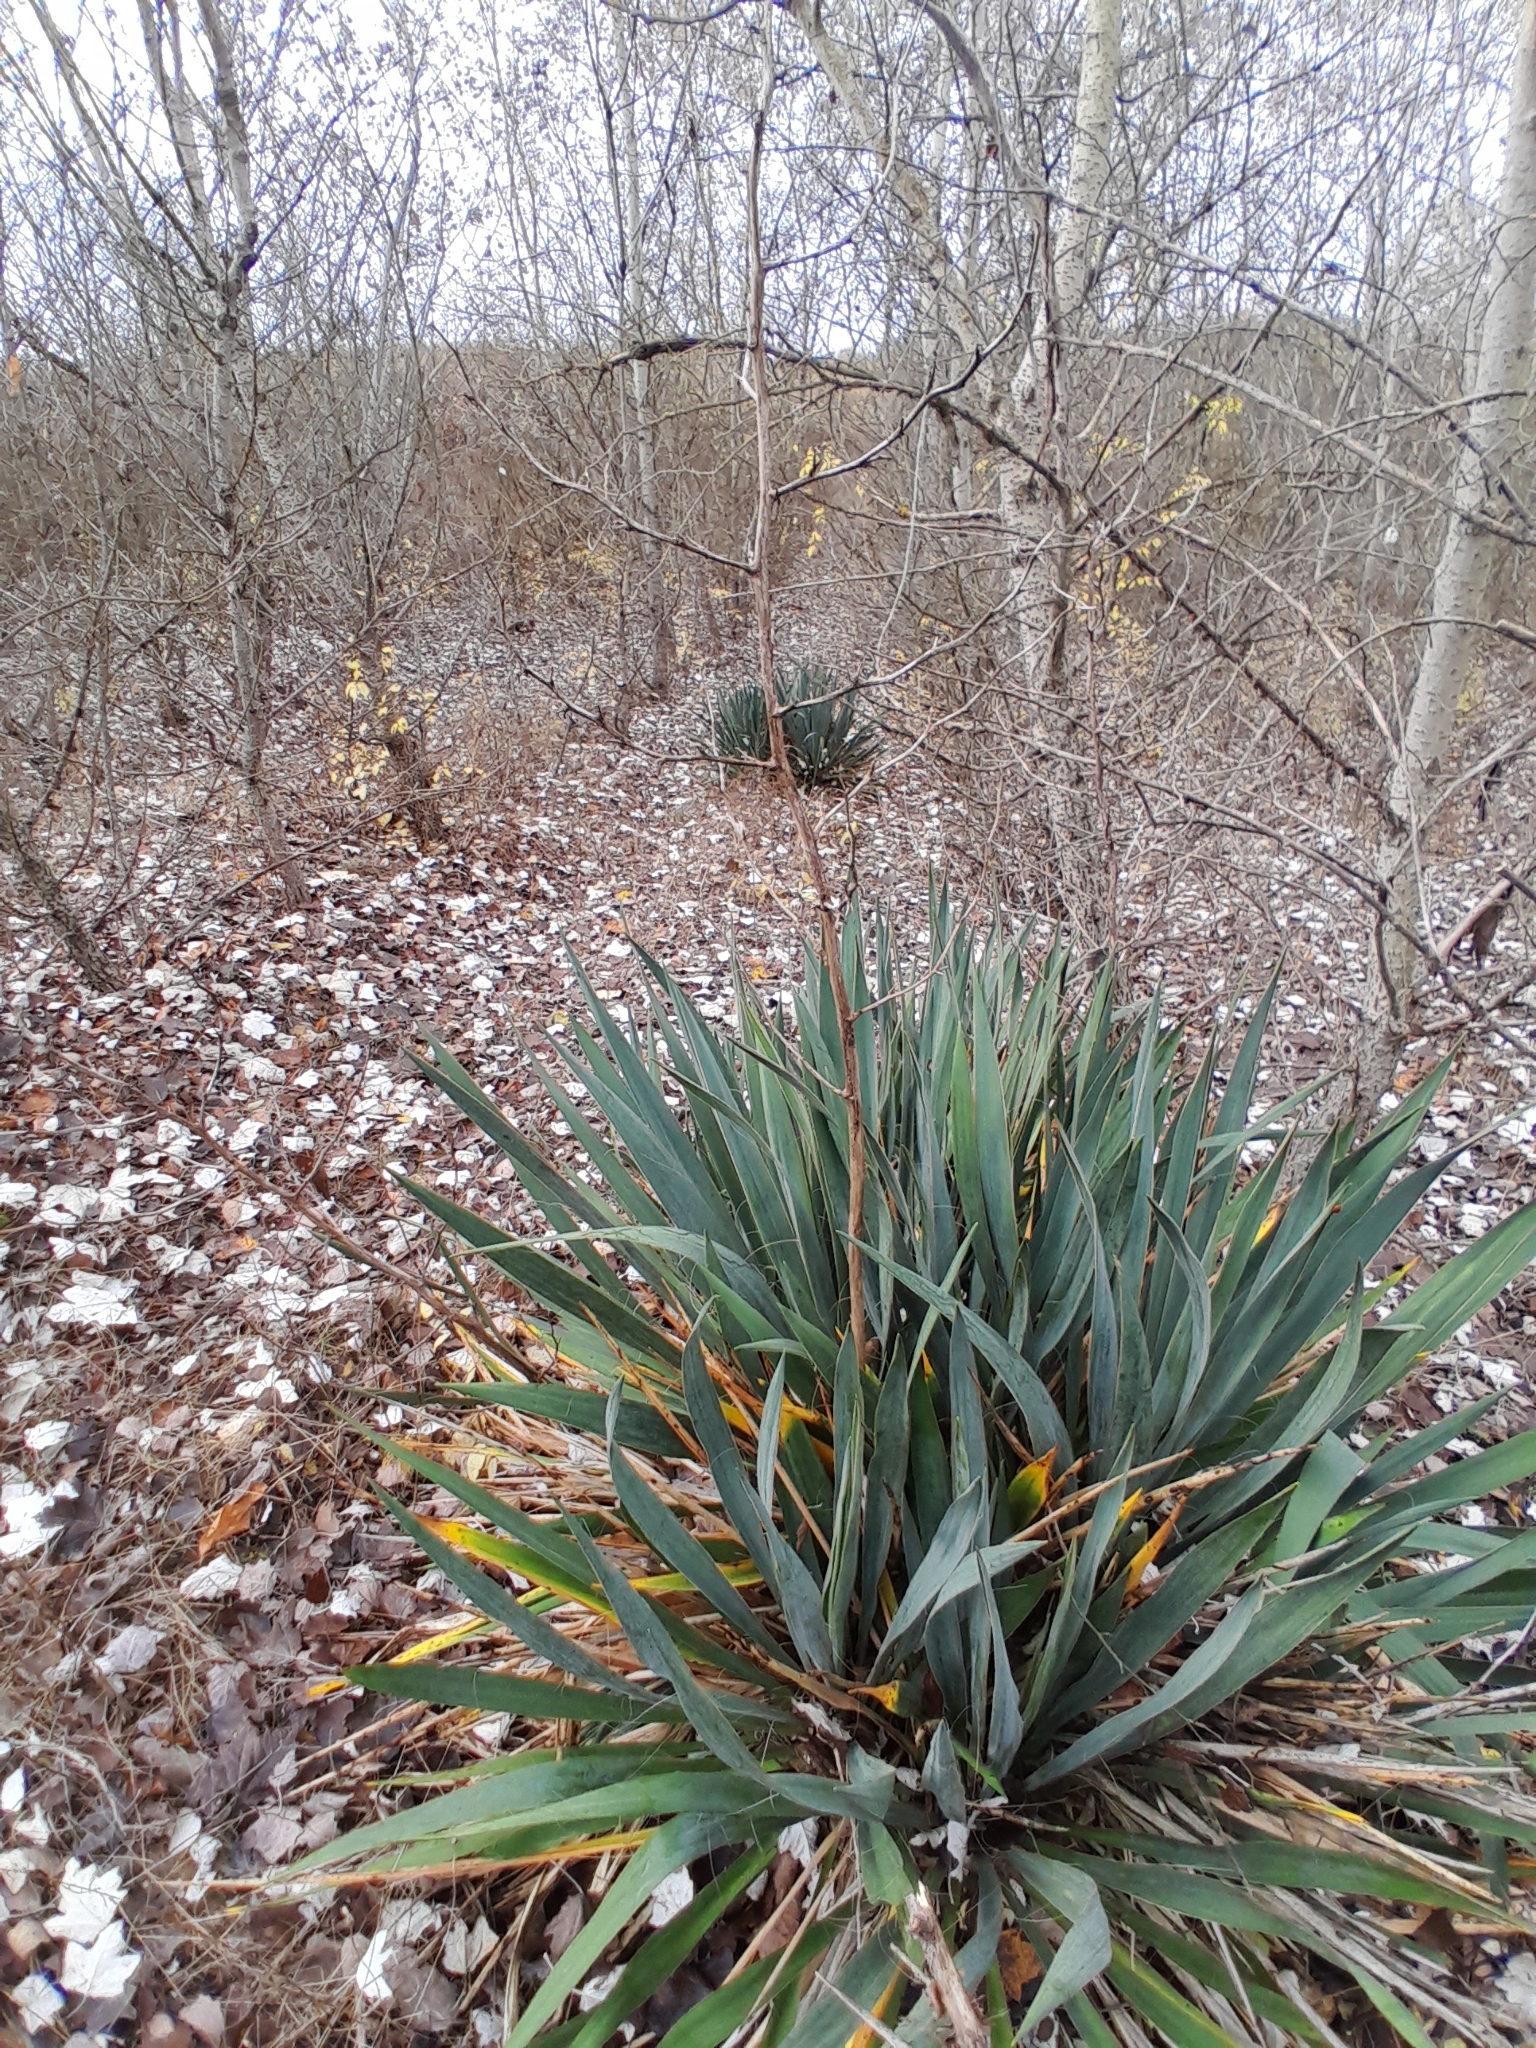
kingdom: Plantae
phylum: Tracheophyta
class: Liliopsida
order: Asparagales
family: Asparagaceae
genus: Yucca
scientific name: Yucca filamentosa
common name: Adam's-needle
